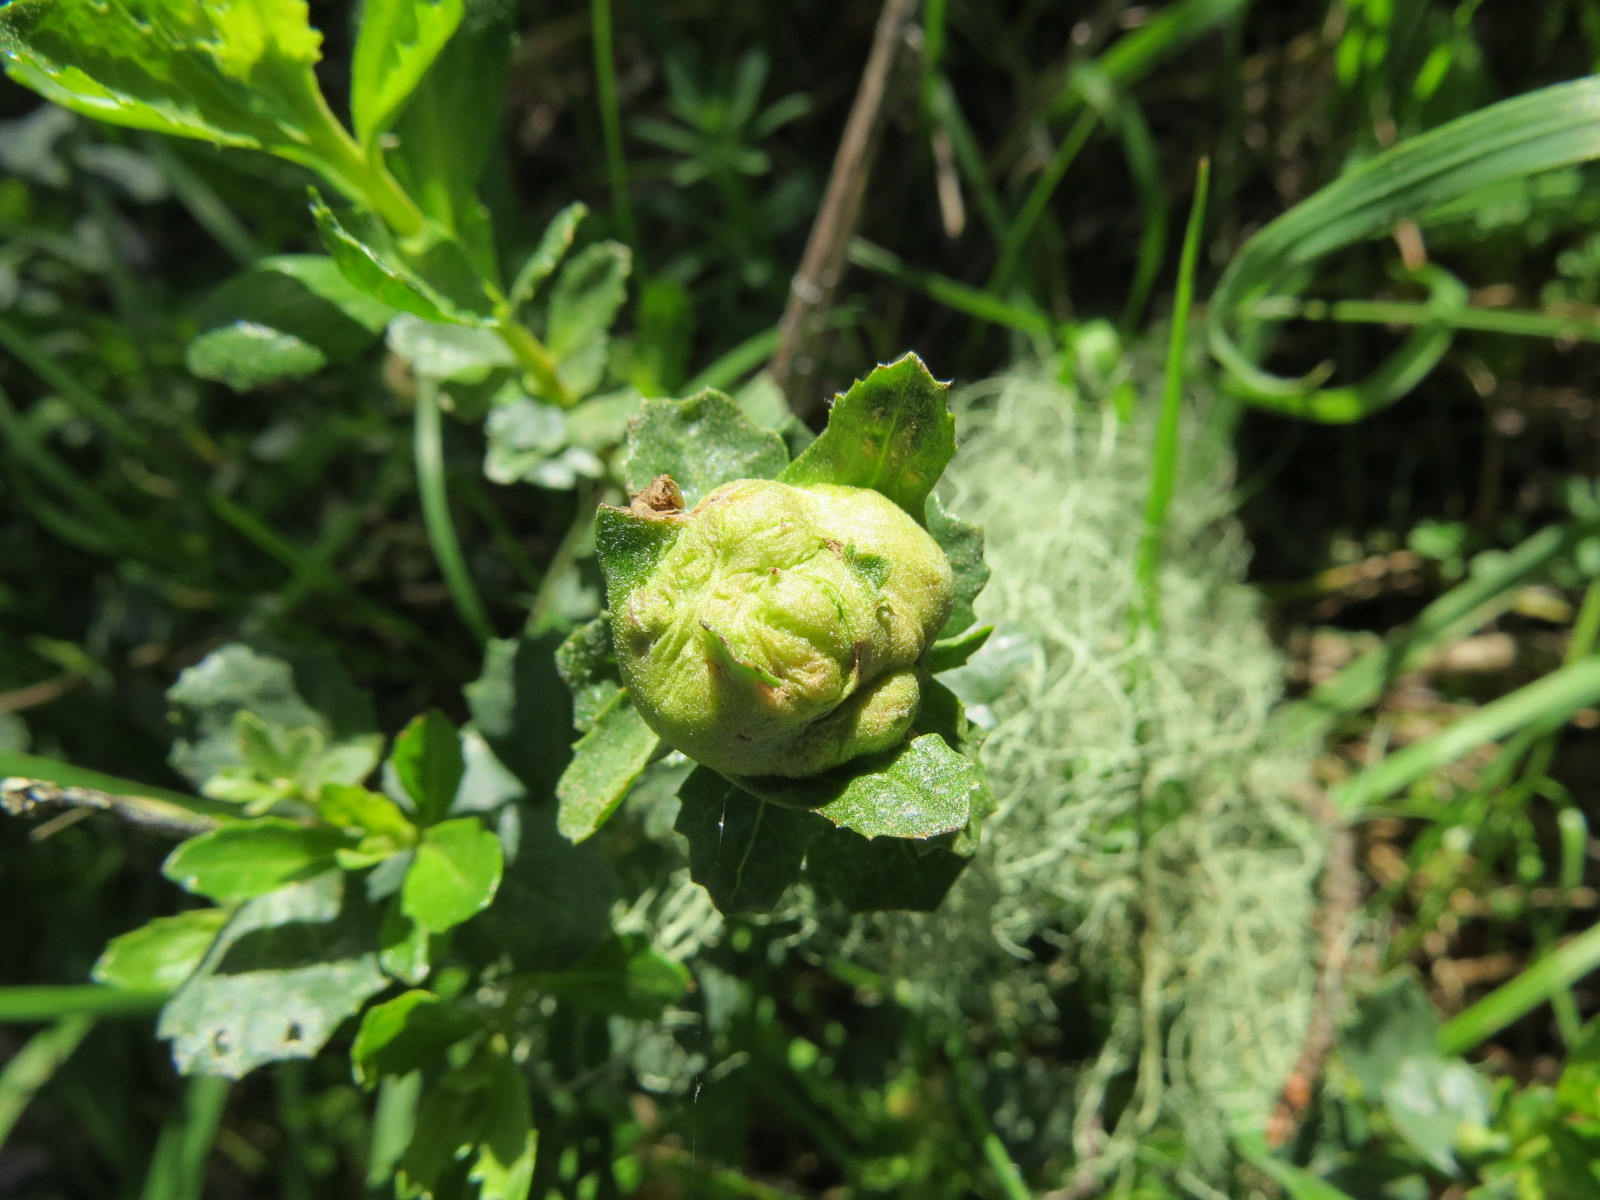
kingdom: Animalia
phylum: Arthropoda
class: Insecta
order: Diptera
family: Cecidomyiidae
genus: Rhopalomyia
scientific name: Rhopalomyia californica
